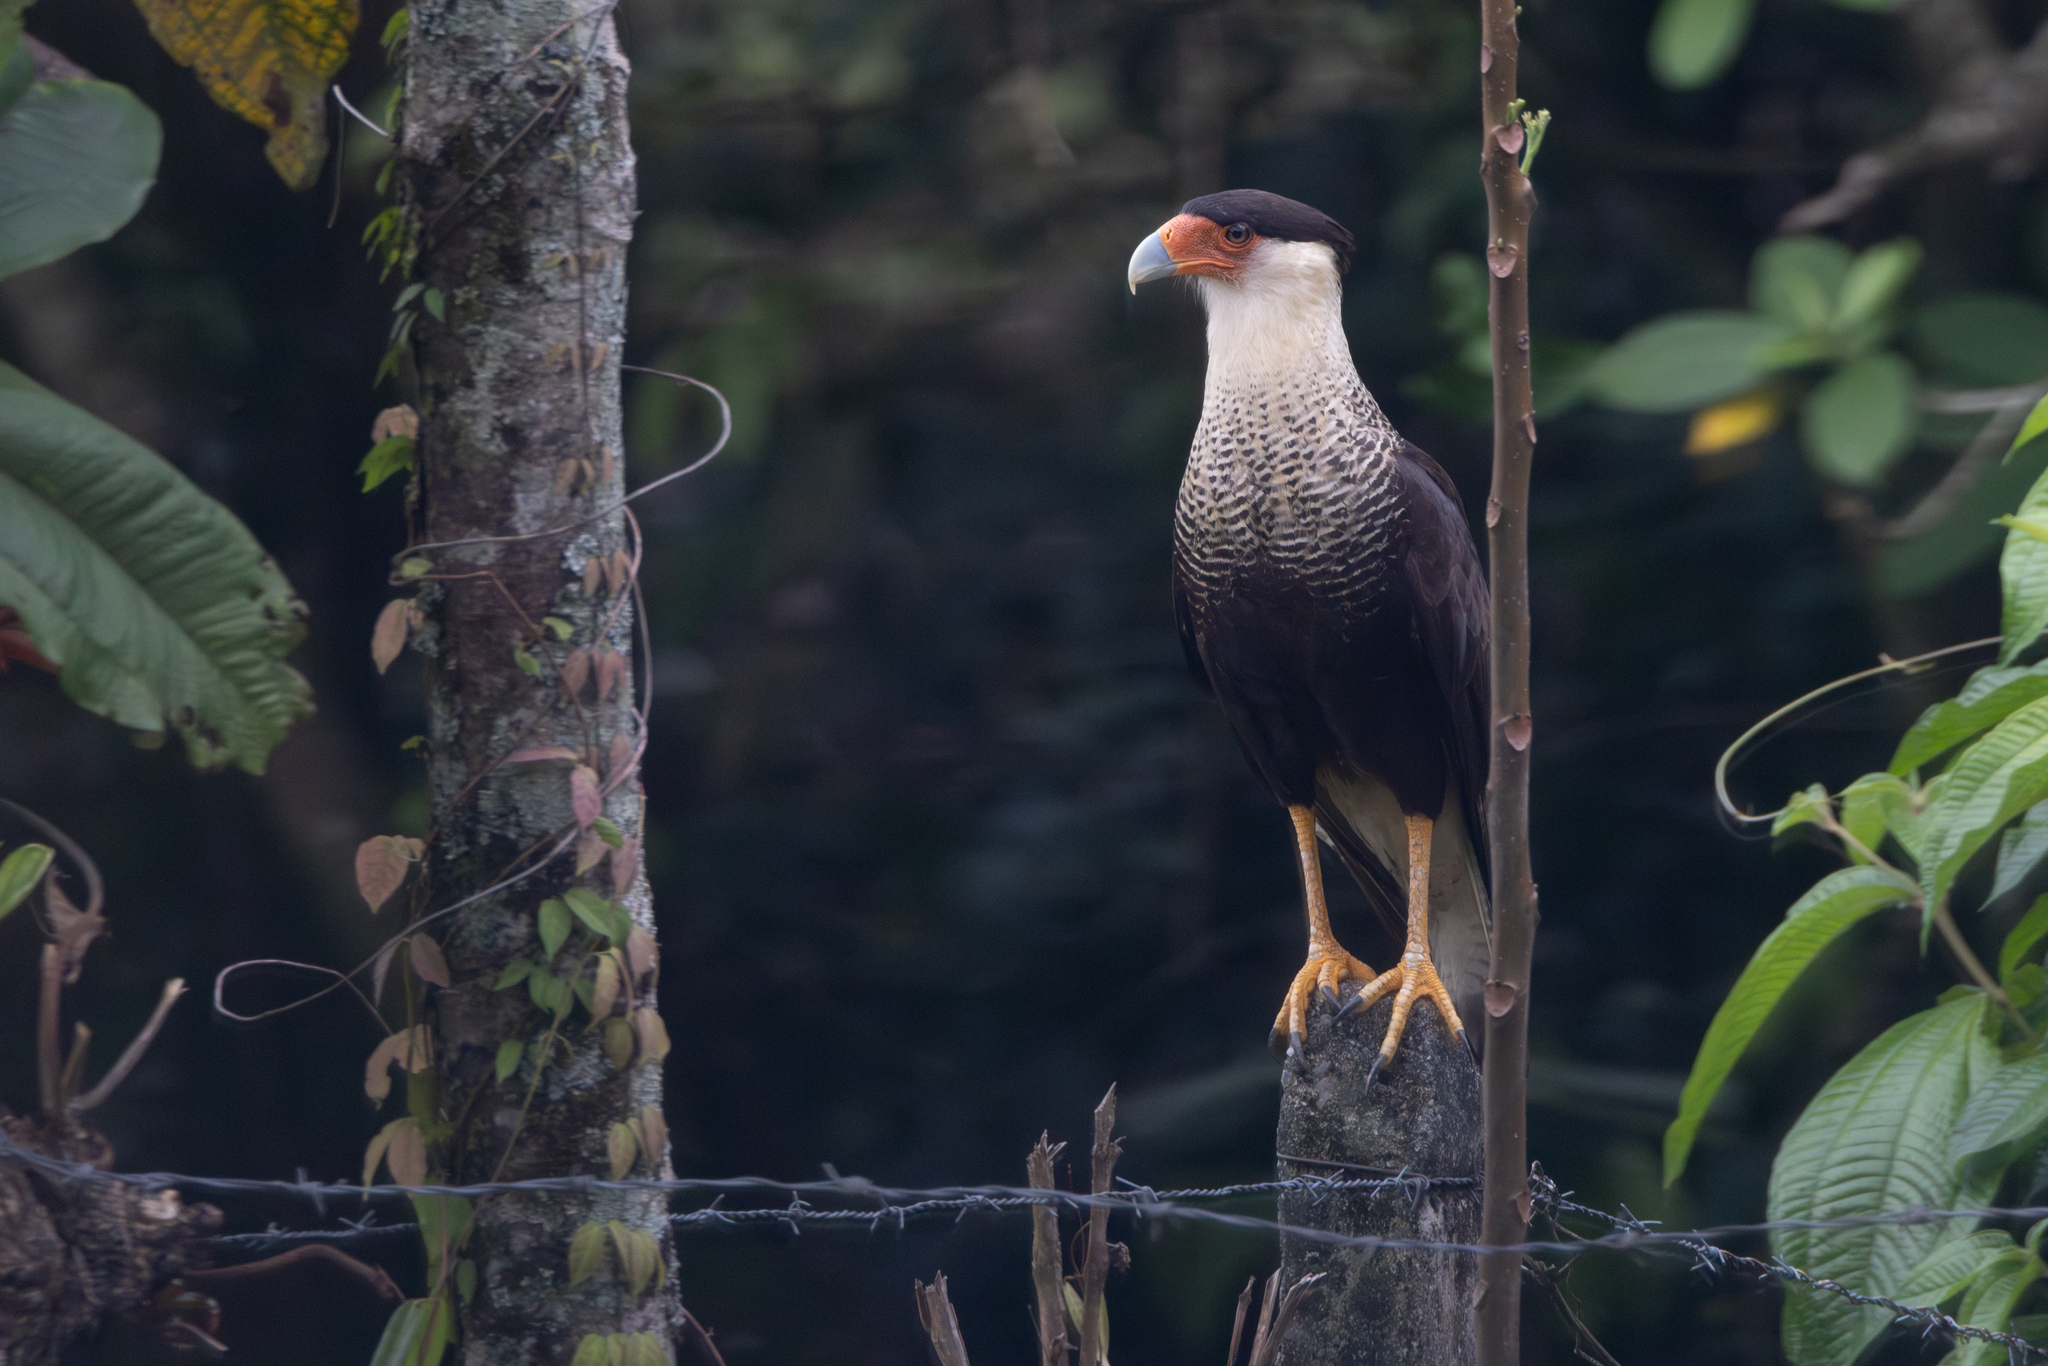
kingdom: Animalia
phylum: Chordata
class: Aves
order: Falconiformes
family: Falconidae
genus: Caracara
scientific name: Caracara plancus
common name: Southern caracara
